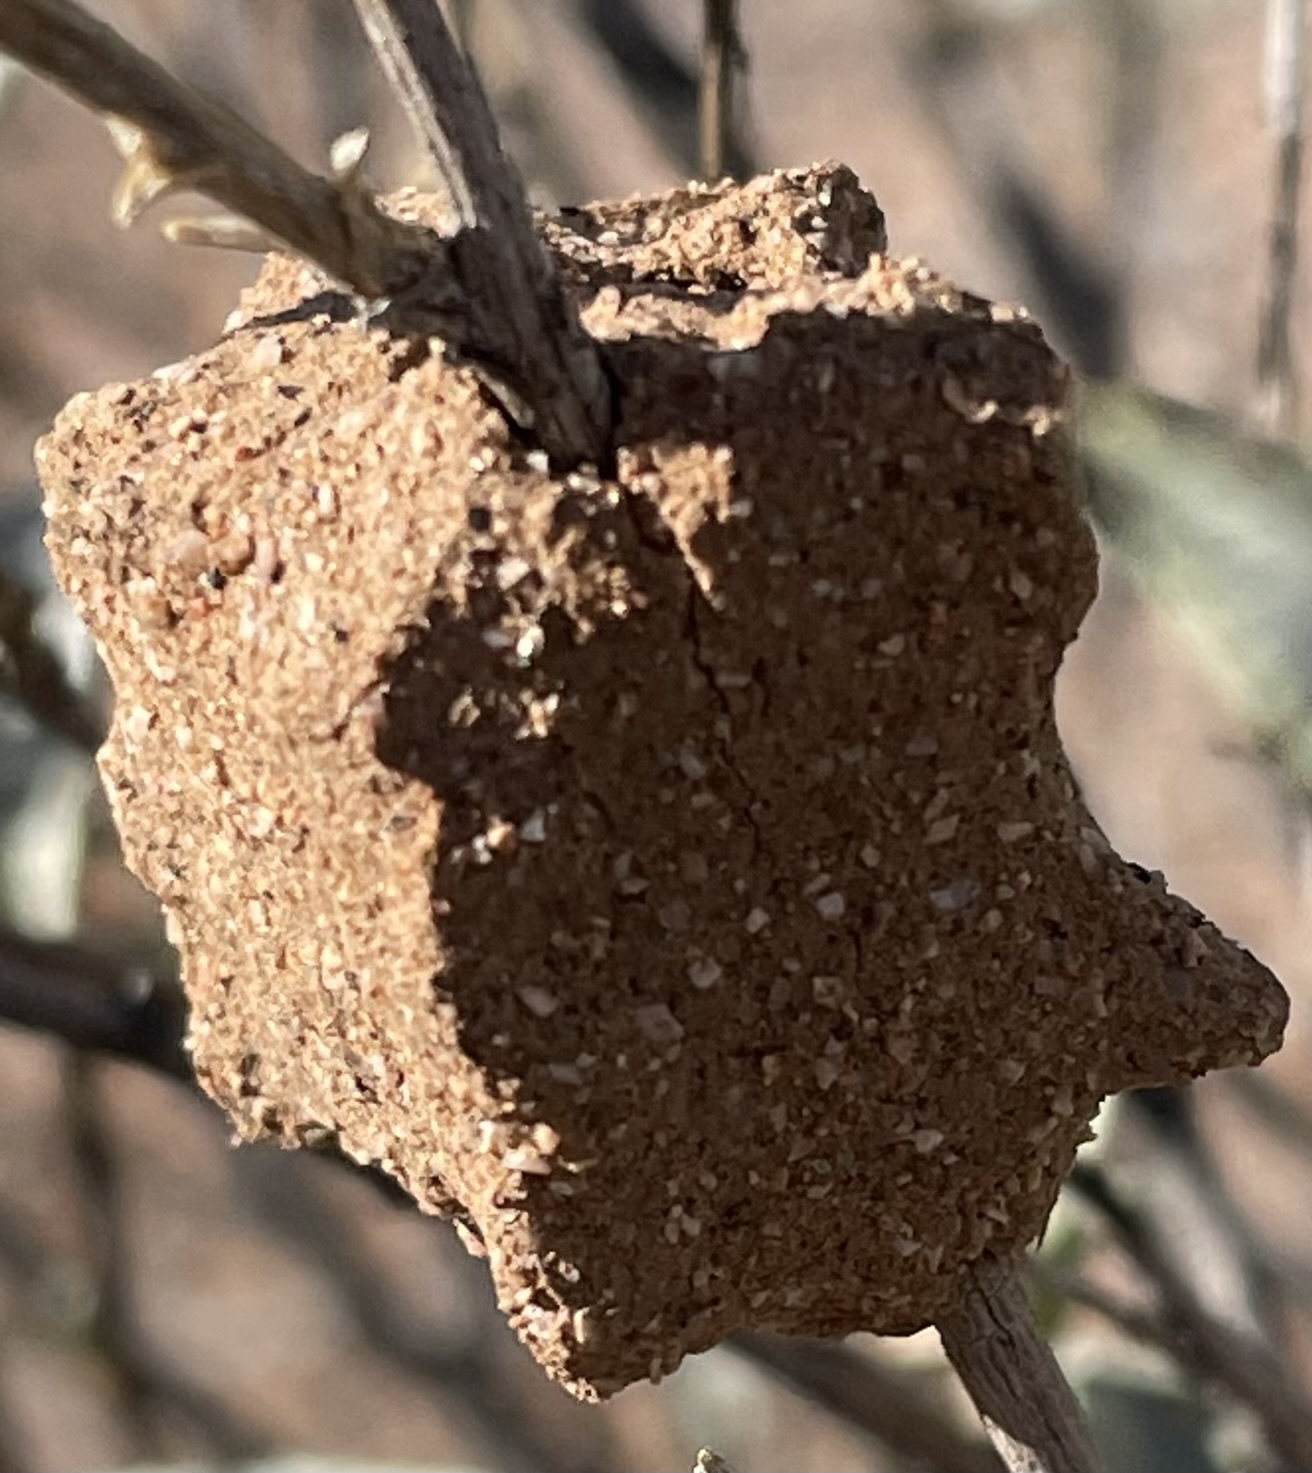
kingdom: Animalia
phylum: Arthropoda
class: Insecta
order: Hymenoptera
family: Masaridae
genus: Pseudomasaris
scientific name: Pseudomasaris
